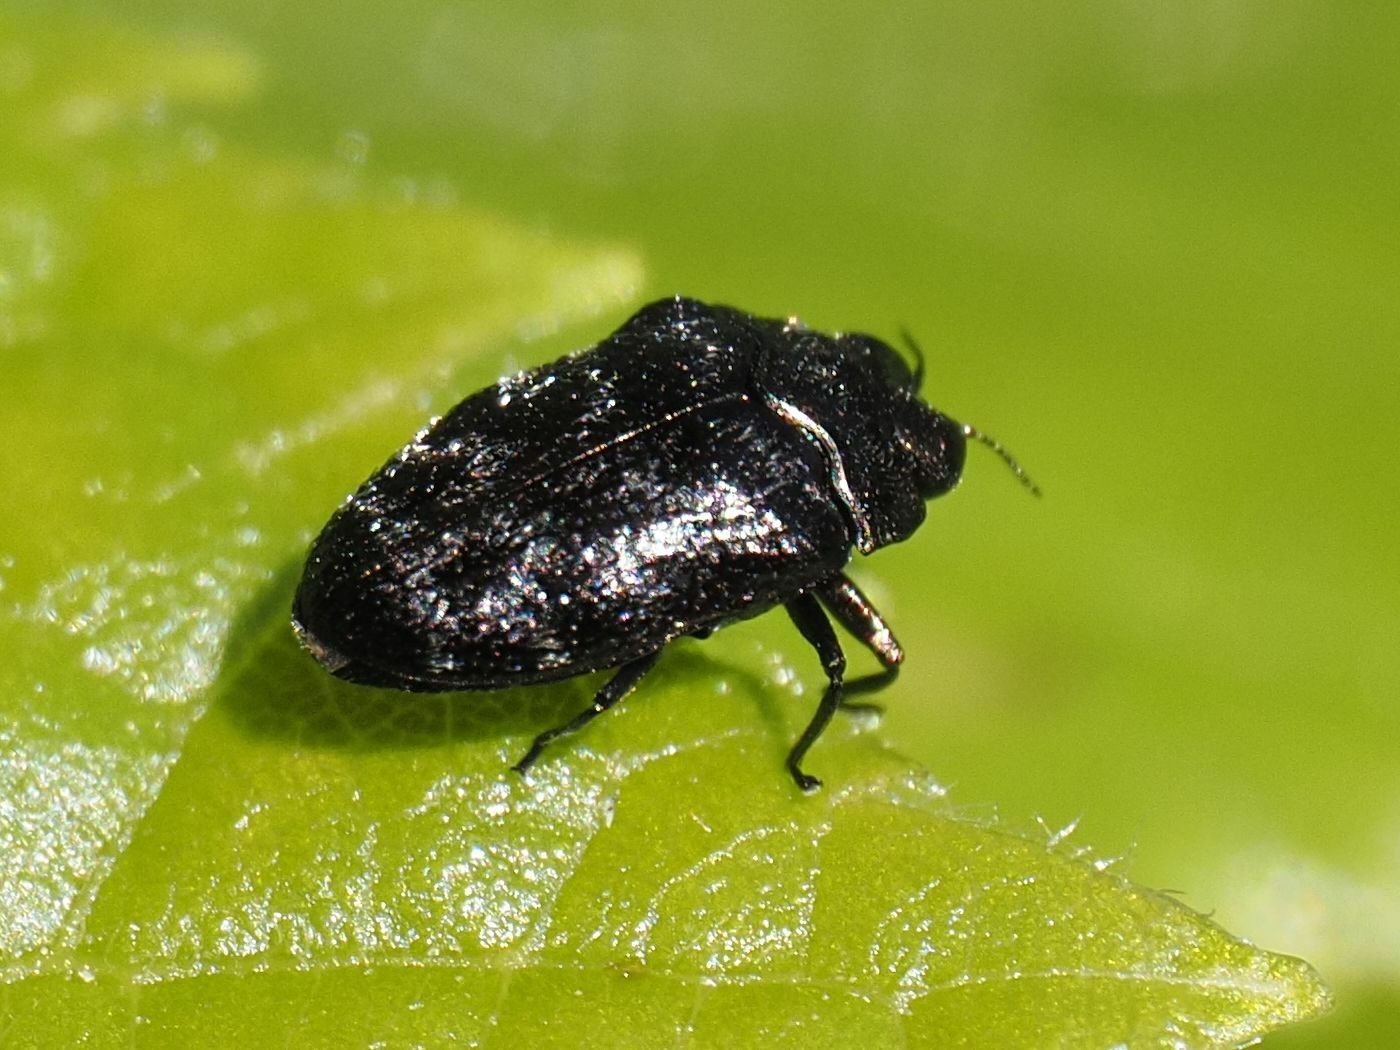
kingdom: Animalia
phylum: Arthropoda
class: Insecta
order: Coleoptera
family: Buprestidae
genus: Trachys
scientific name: Trachys minutus
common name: Metallic wood-boring beetle
